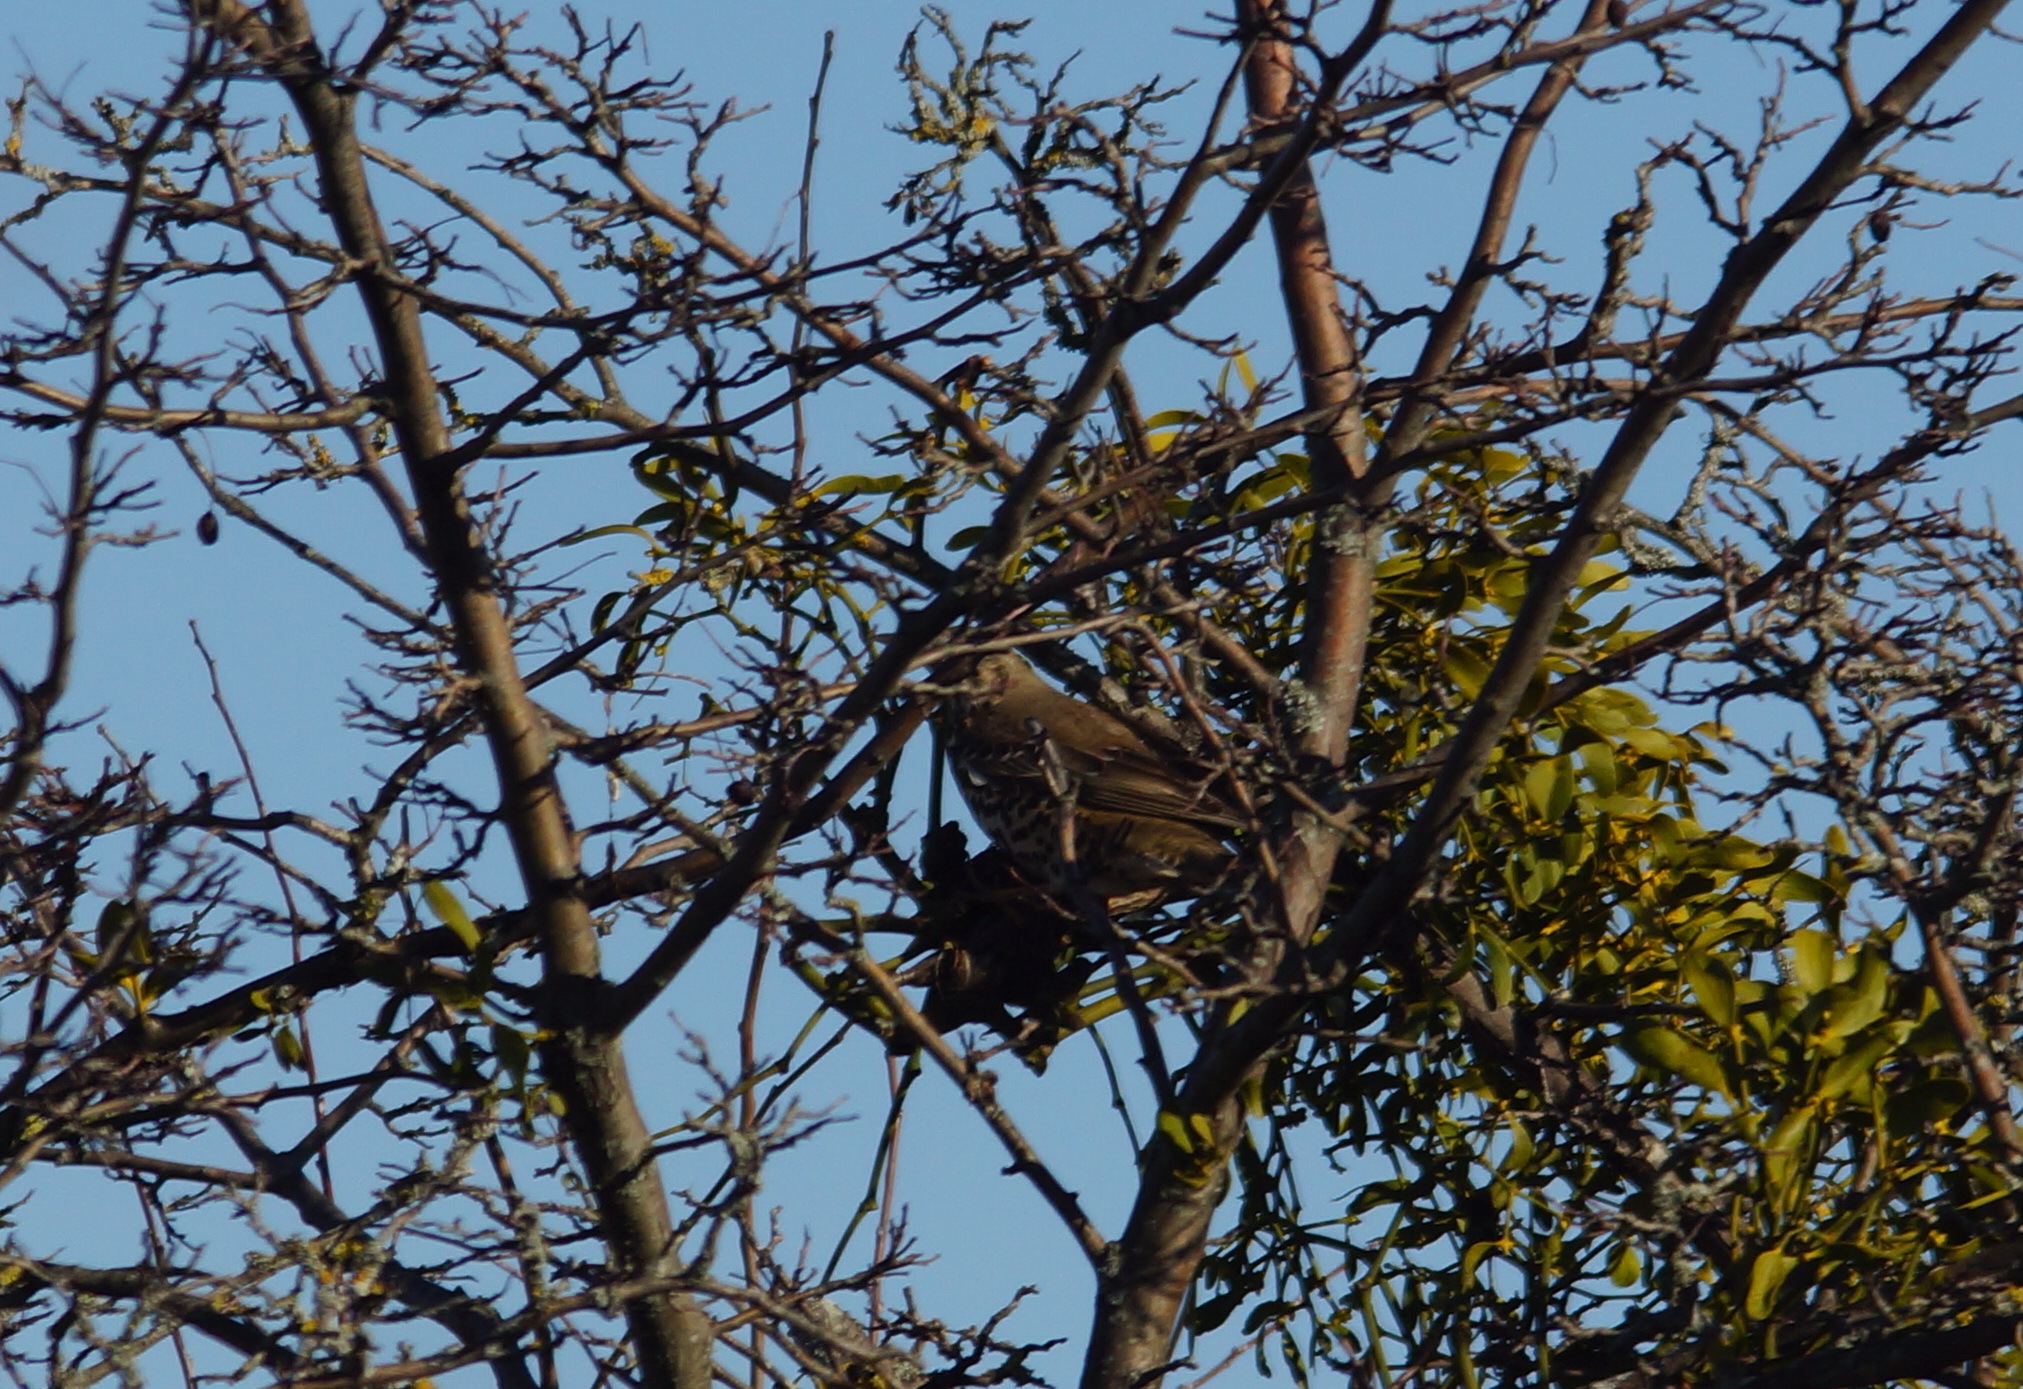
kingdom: Animalia
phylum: Chordata
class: Aves
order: Passeriformes
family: Turdidae
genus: Turdus
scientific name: Turdus viscivorus
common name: Mistle thrush
